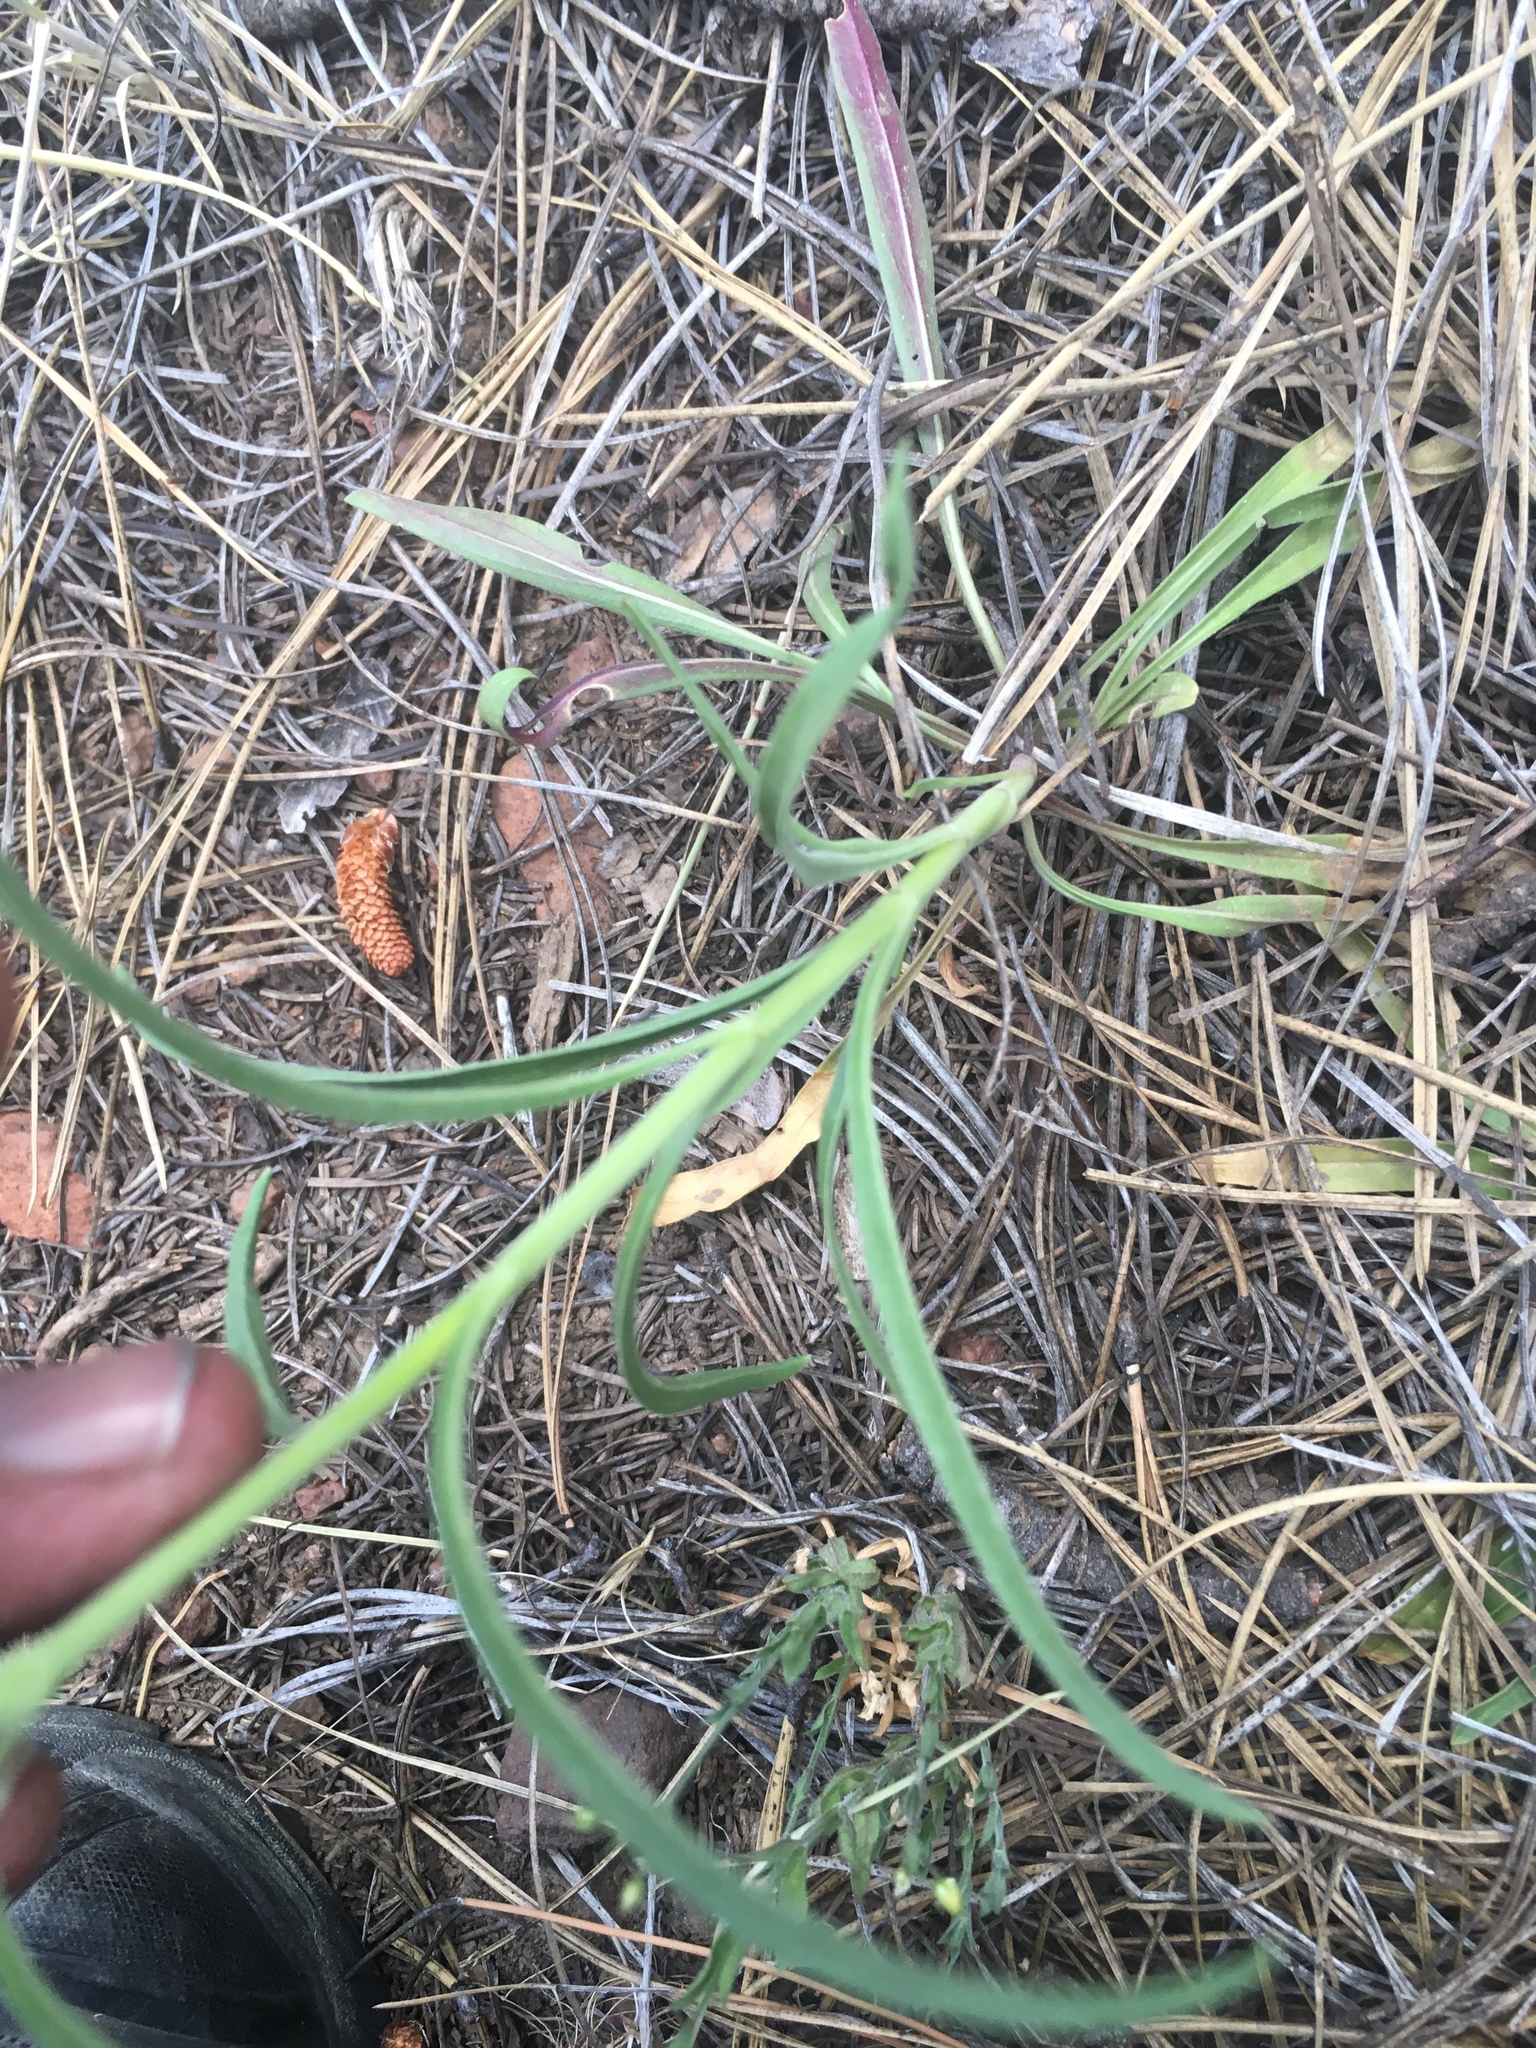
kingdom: Plantae
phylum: Tracheophyta
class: Magnoliopsida
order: Lamiales
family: Plantaginaceae
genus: Penstemon
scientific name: Penstemon virgatus
